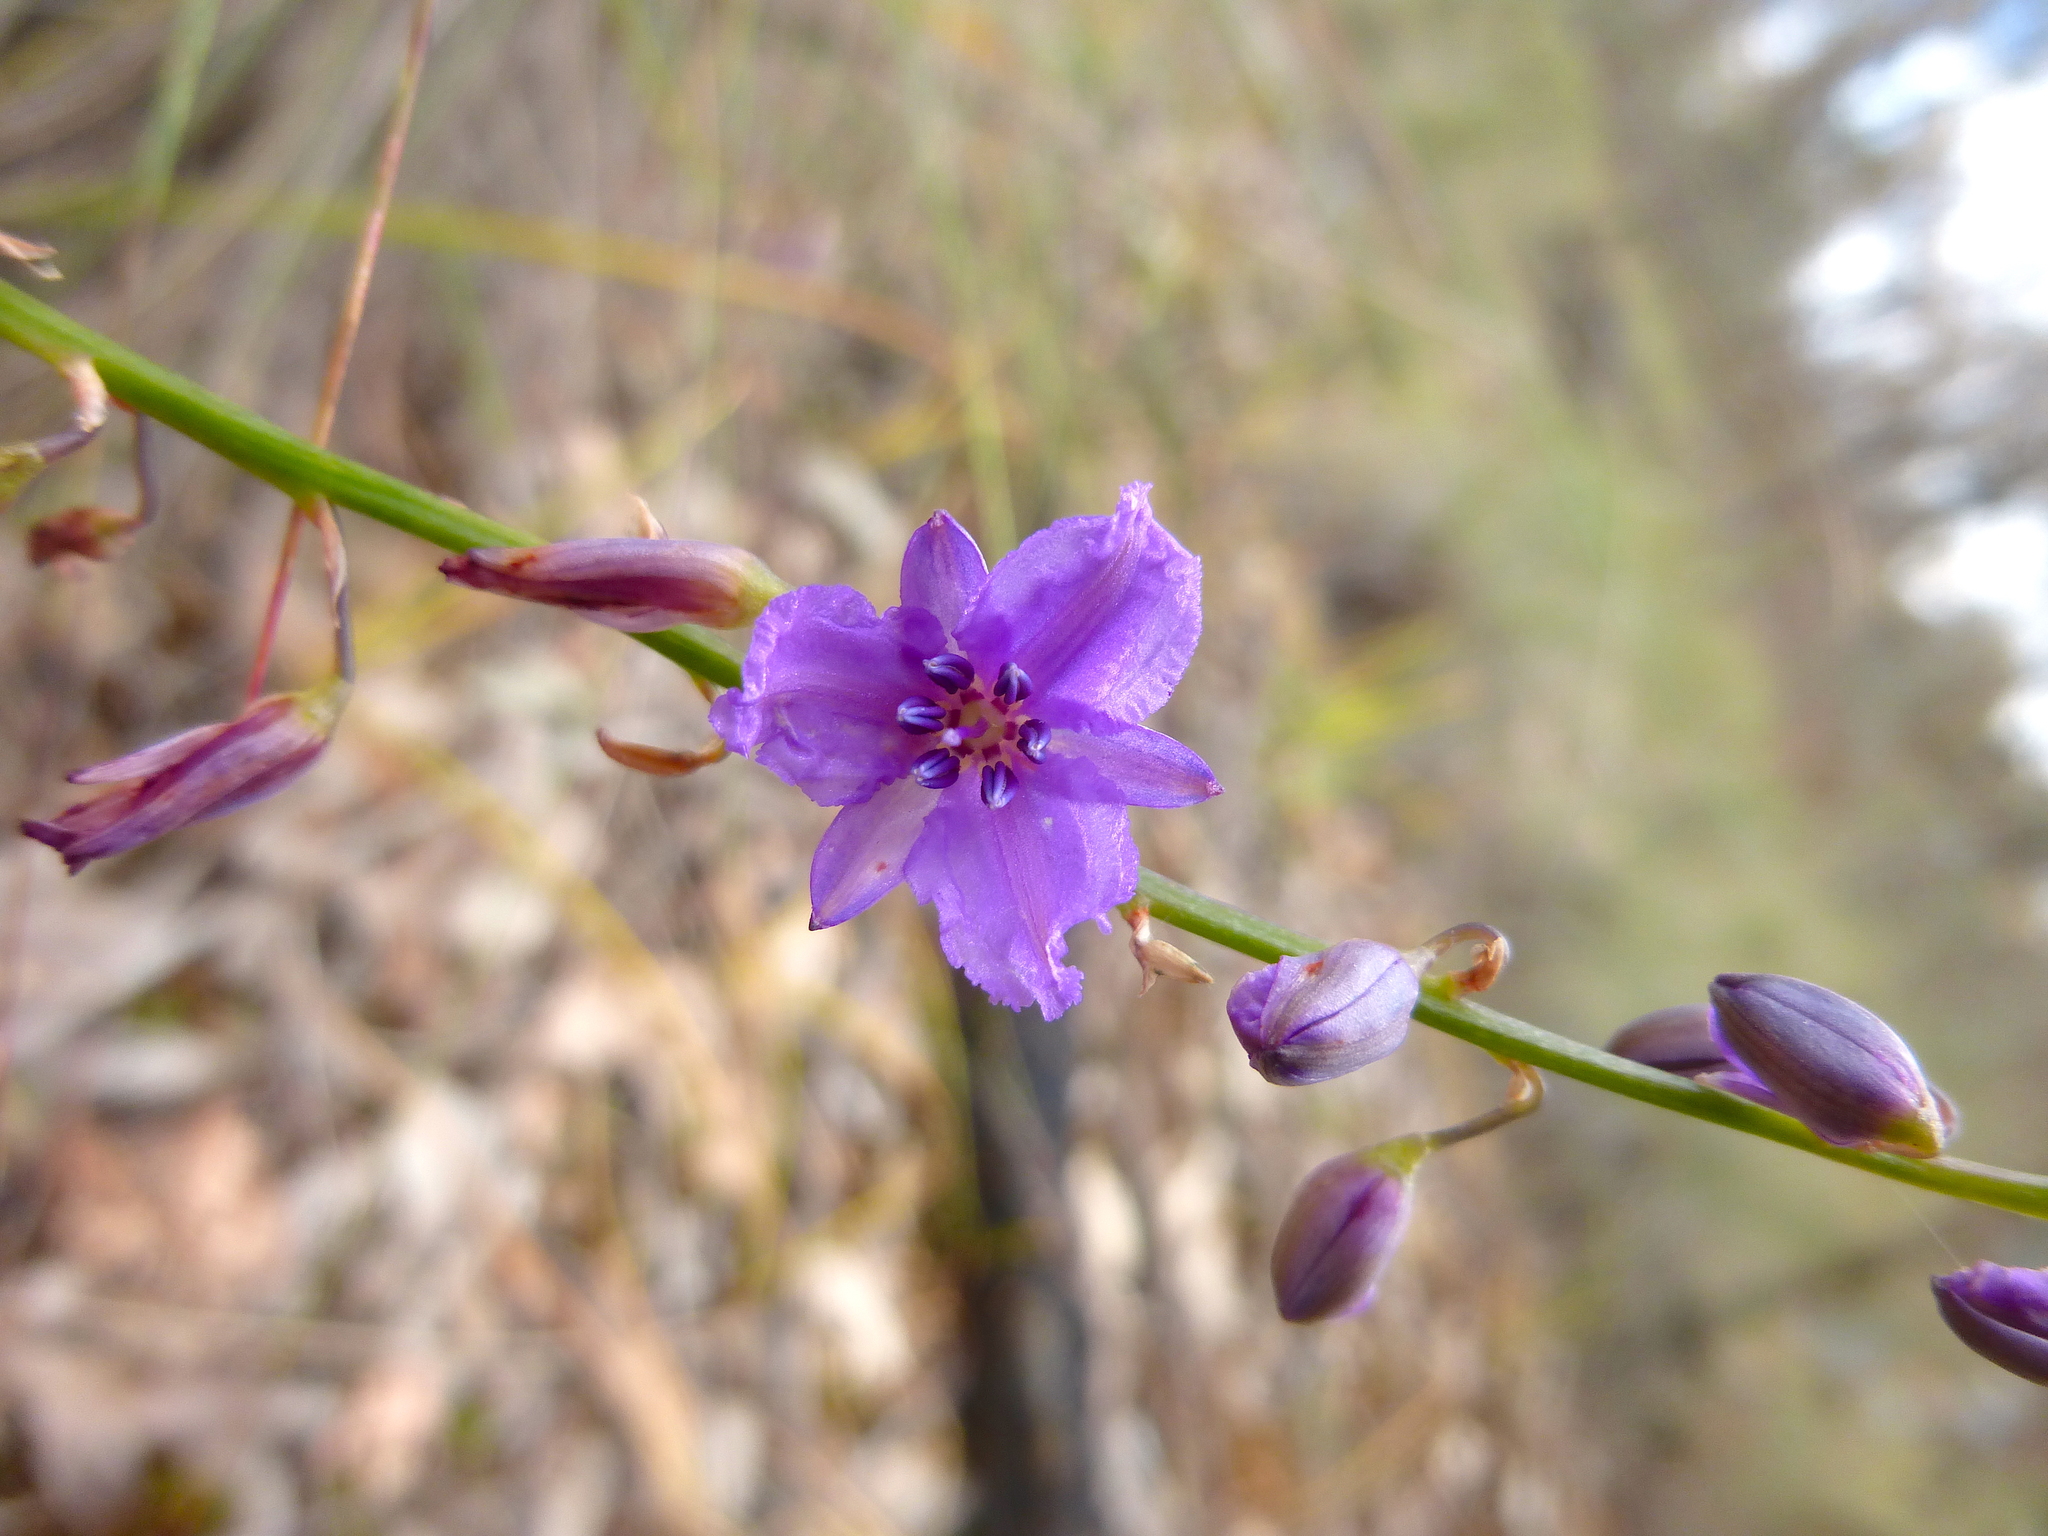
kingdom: Plantae
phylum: Tracheophyta
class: Liliopsida
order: Asparagales
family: Asparagaceae
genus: Arthropodium
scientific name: Arthropodium strictum
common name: Chocolate-lily
